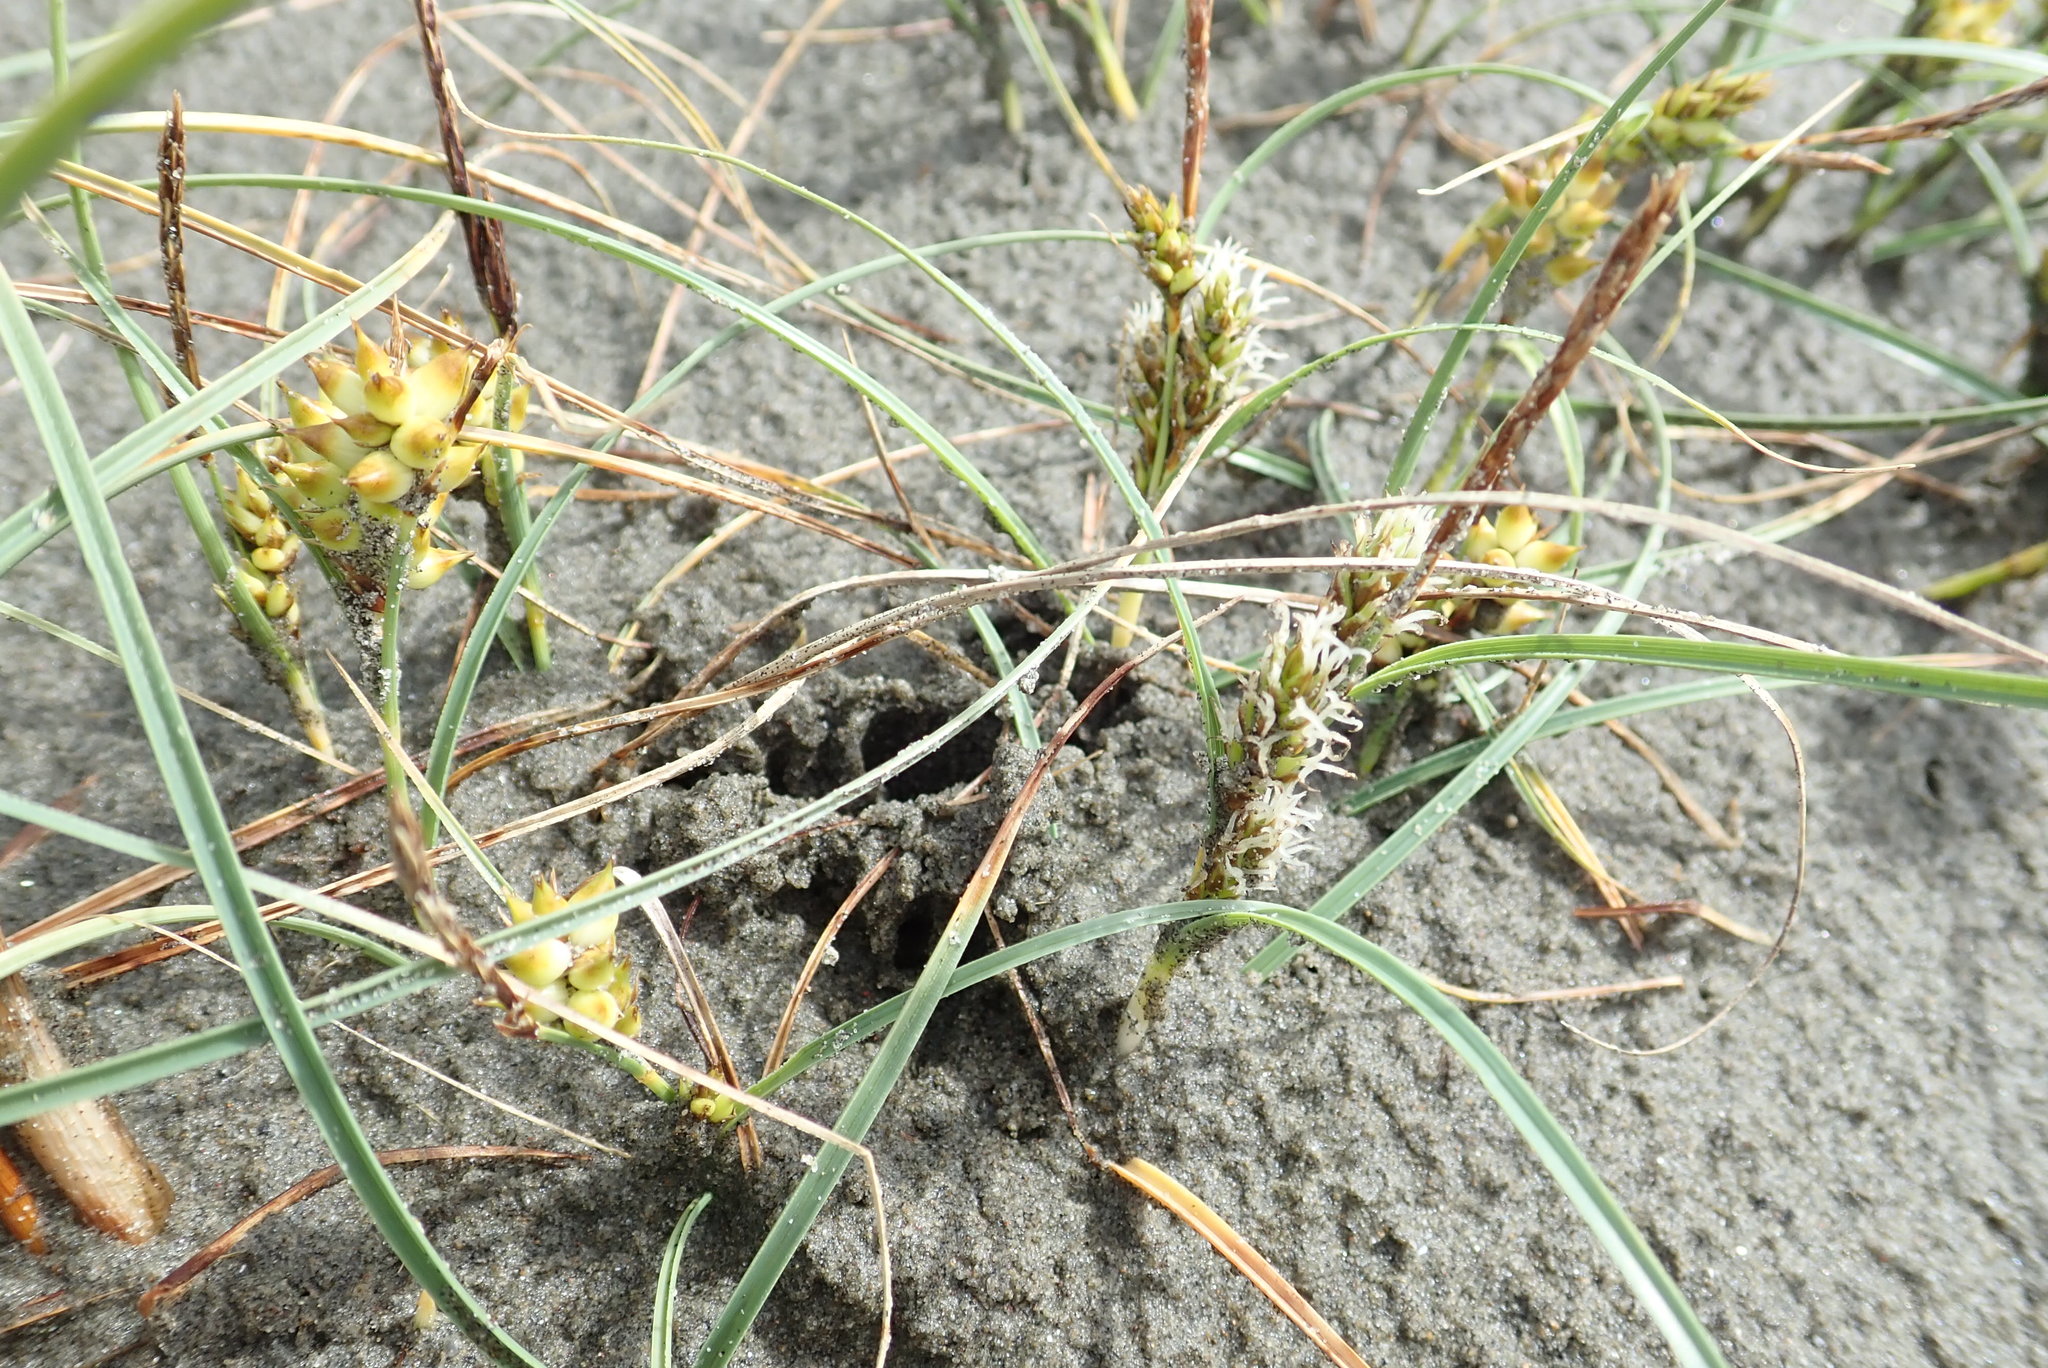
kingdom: Plantae
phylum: Tracheophyta
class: Liliopsida
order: Poales
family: Cyperaceae
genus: Carex
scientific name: Carex pumila
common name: Dwarf sedge
